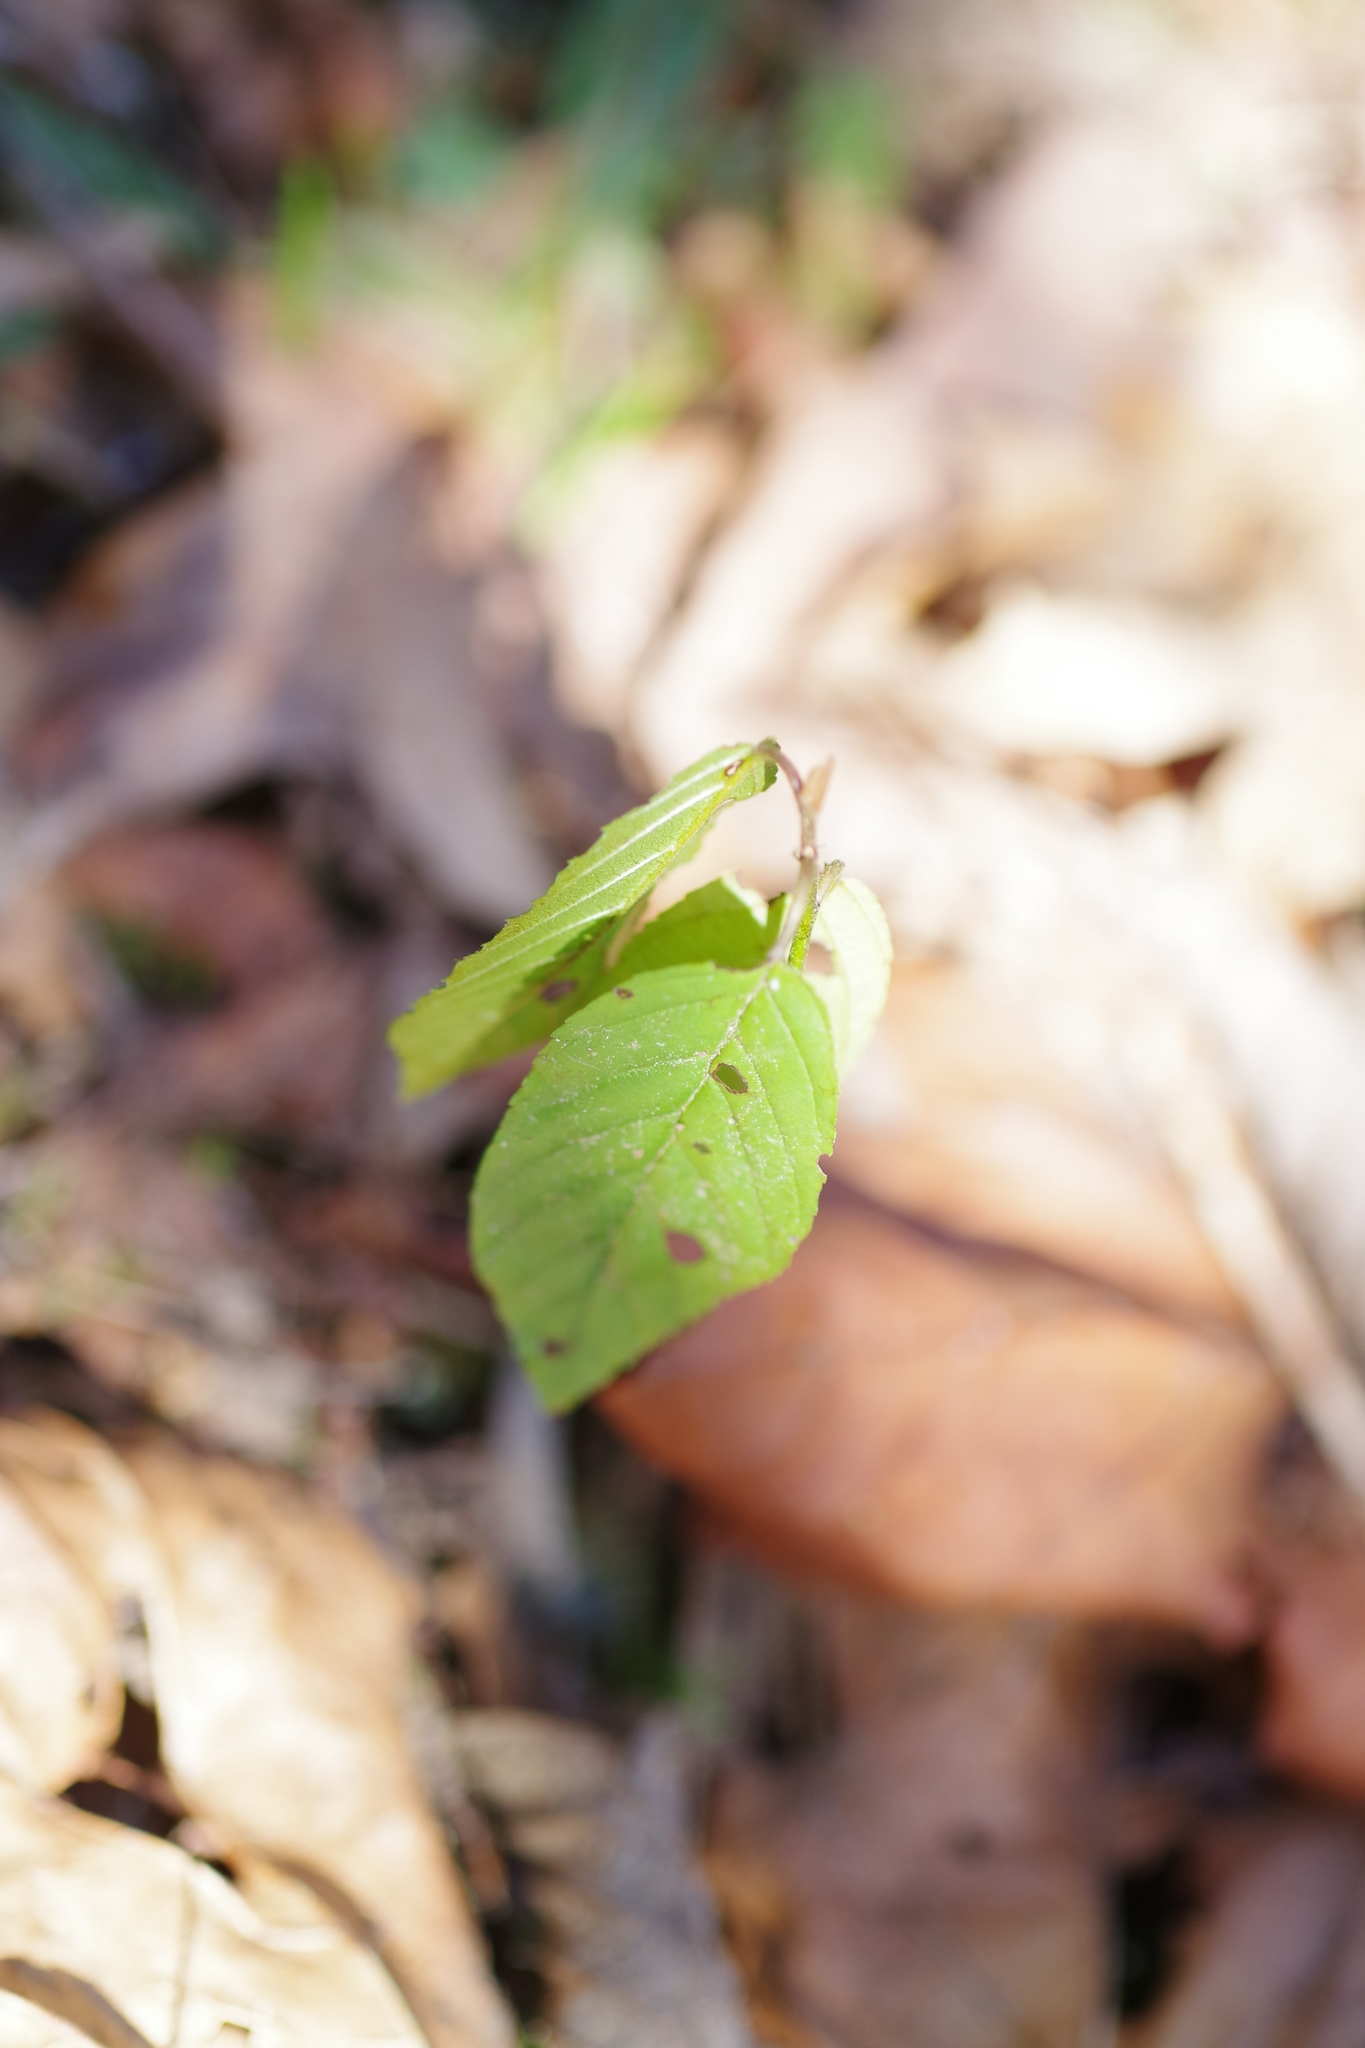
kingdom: Plantae
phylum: Tracheophyta
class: Magnoliopsida
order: Rosales
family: Rhamnaceae
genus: Frangula
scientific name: Frangula purshiana
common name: Cascara buckthorn
